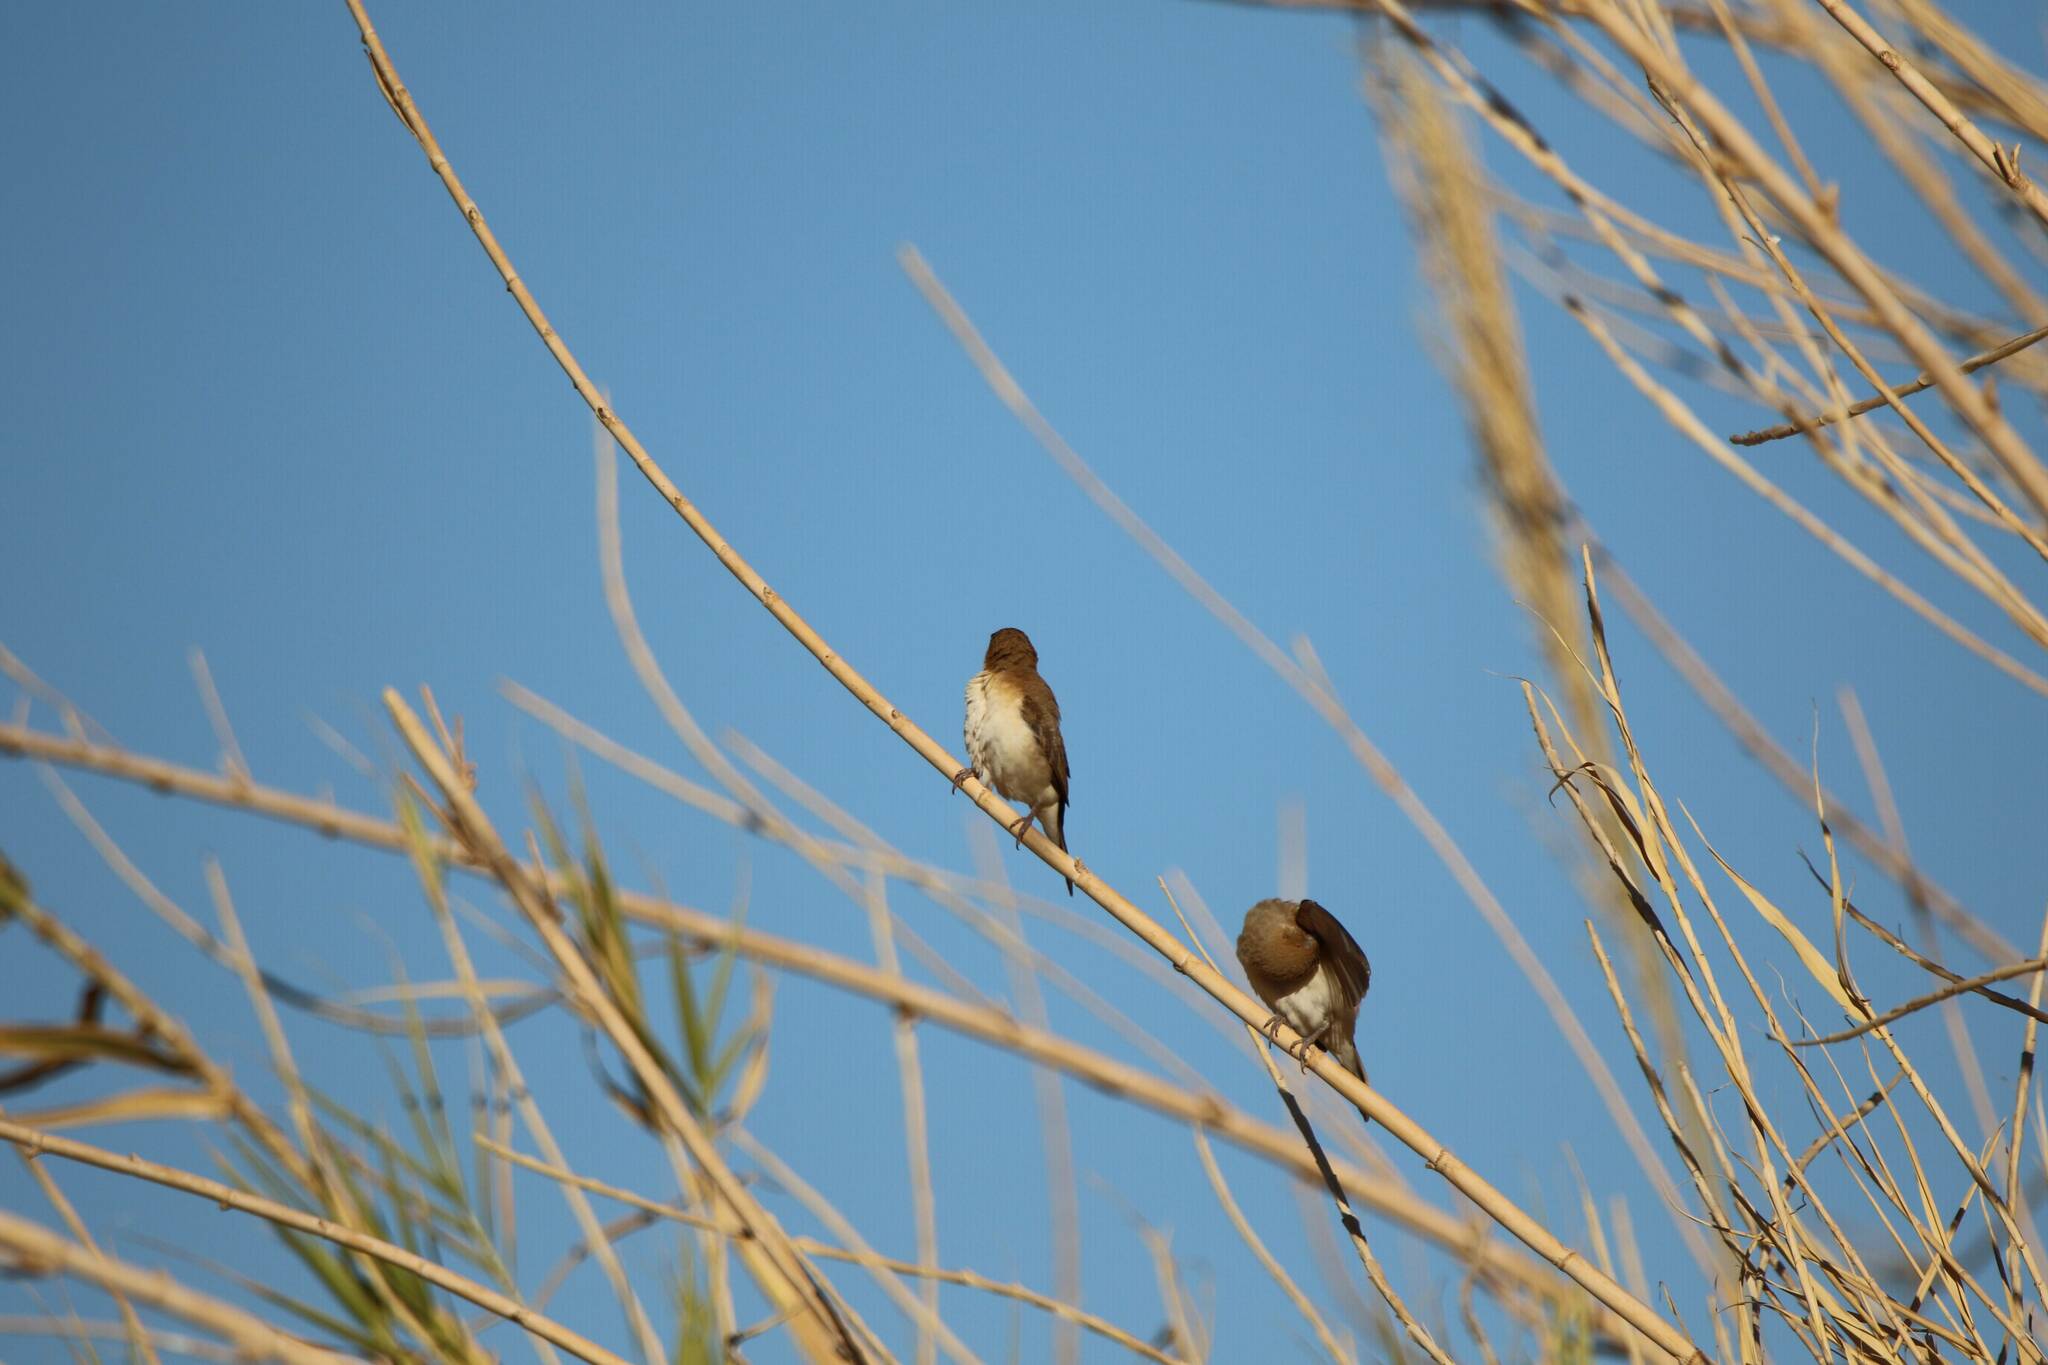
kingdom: Animalia
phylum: Chordata
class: Aves
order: Passeriformes
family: Estrildidae
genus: Euodice
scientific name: Euodice cantans
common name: African silverbill
